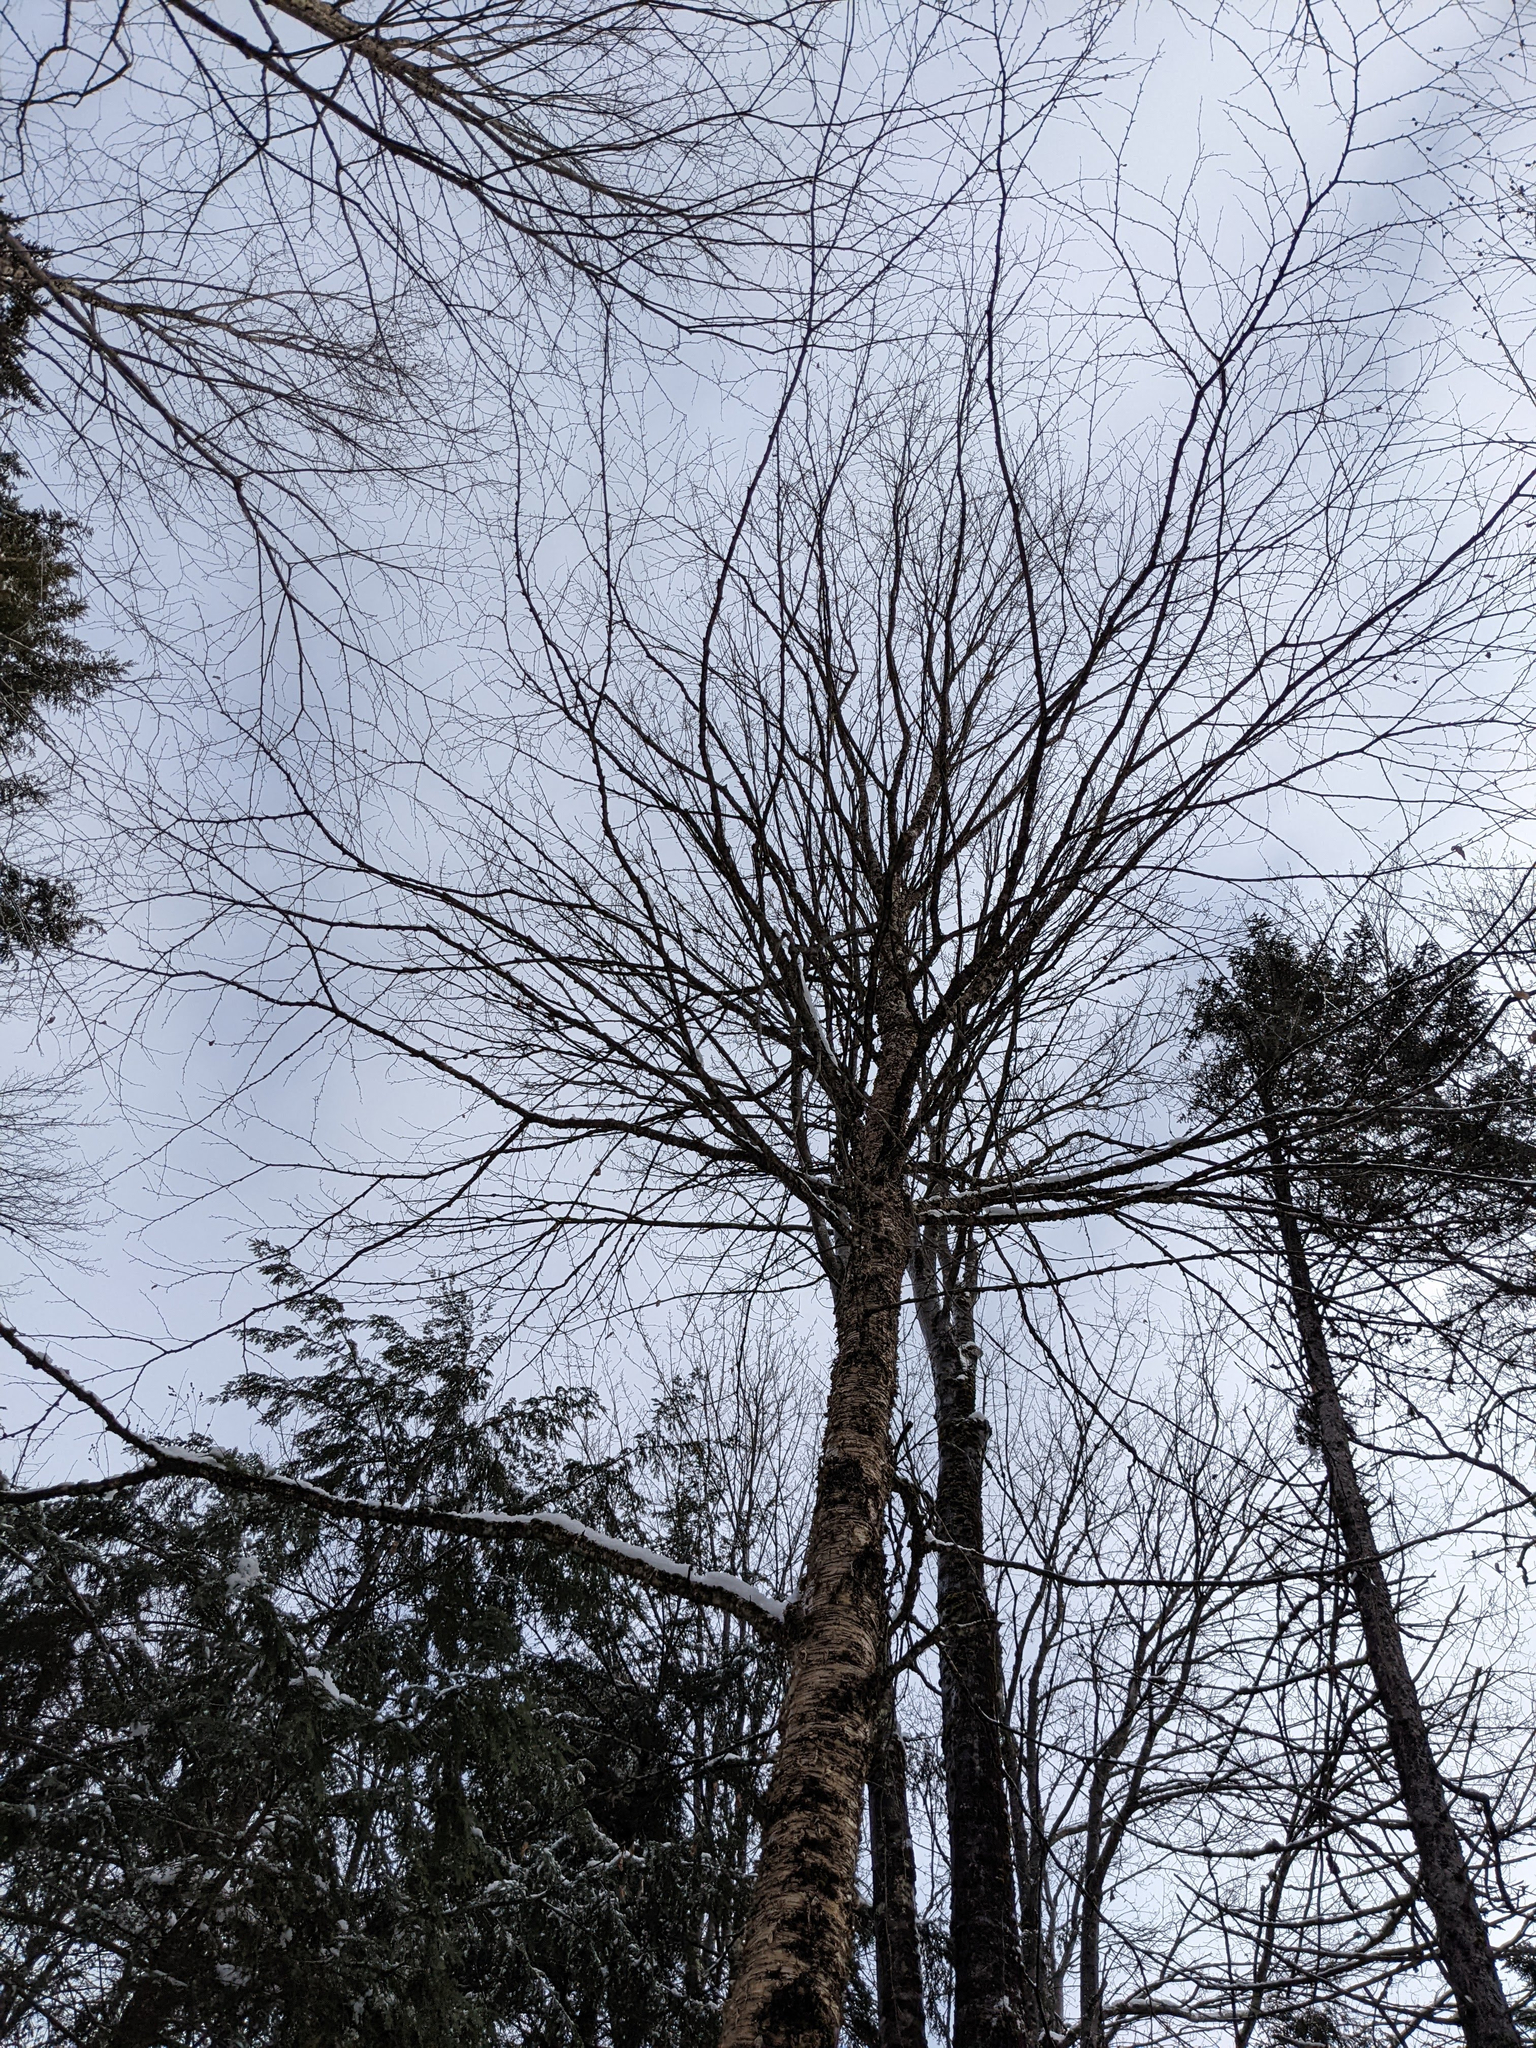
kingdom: Plantae
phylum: Tracheophyta
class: Magnoliopsida
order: Fagales
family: Betulaceae
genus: Betula
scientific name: Betula alleghaniensis
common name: Yellow birch
